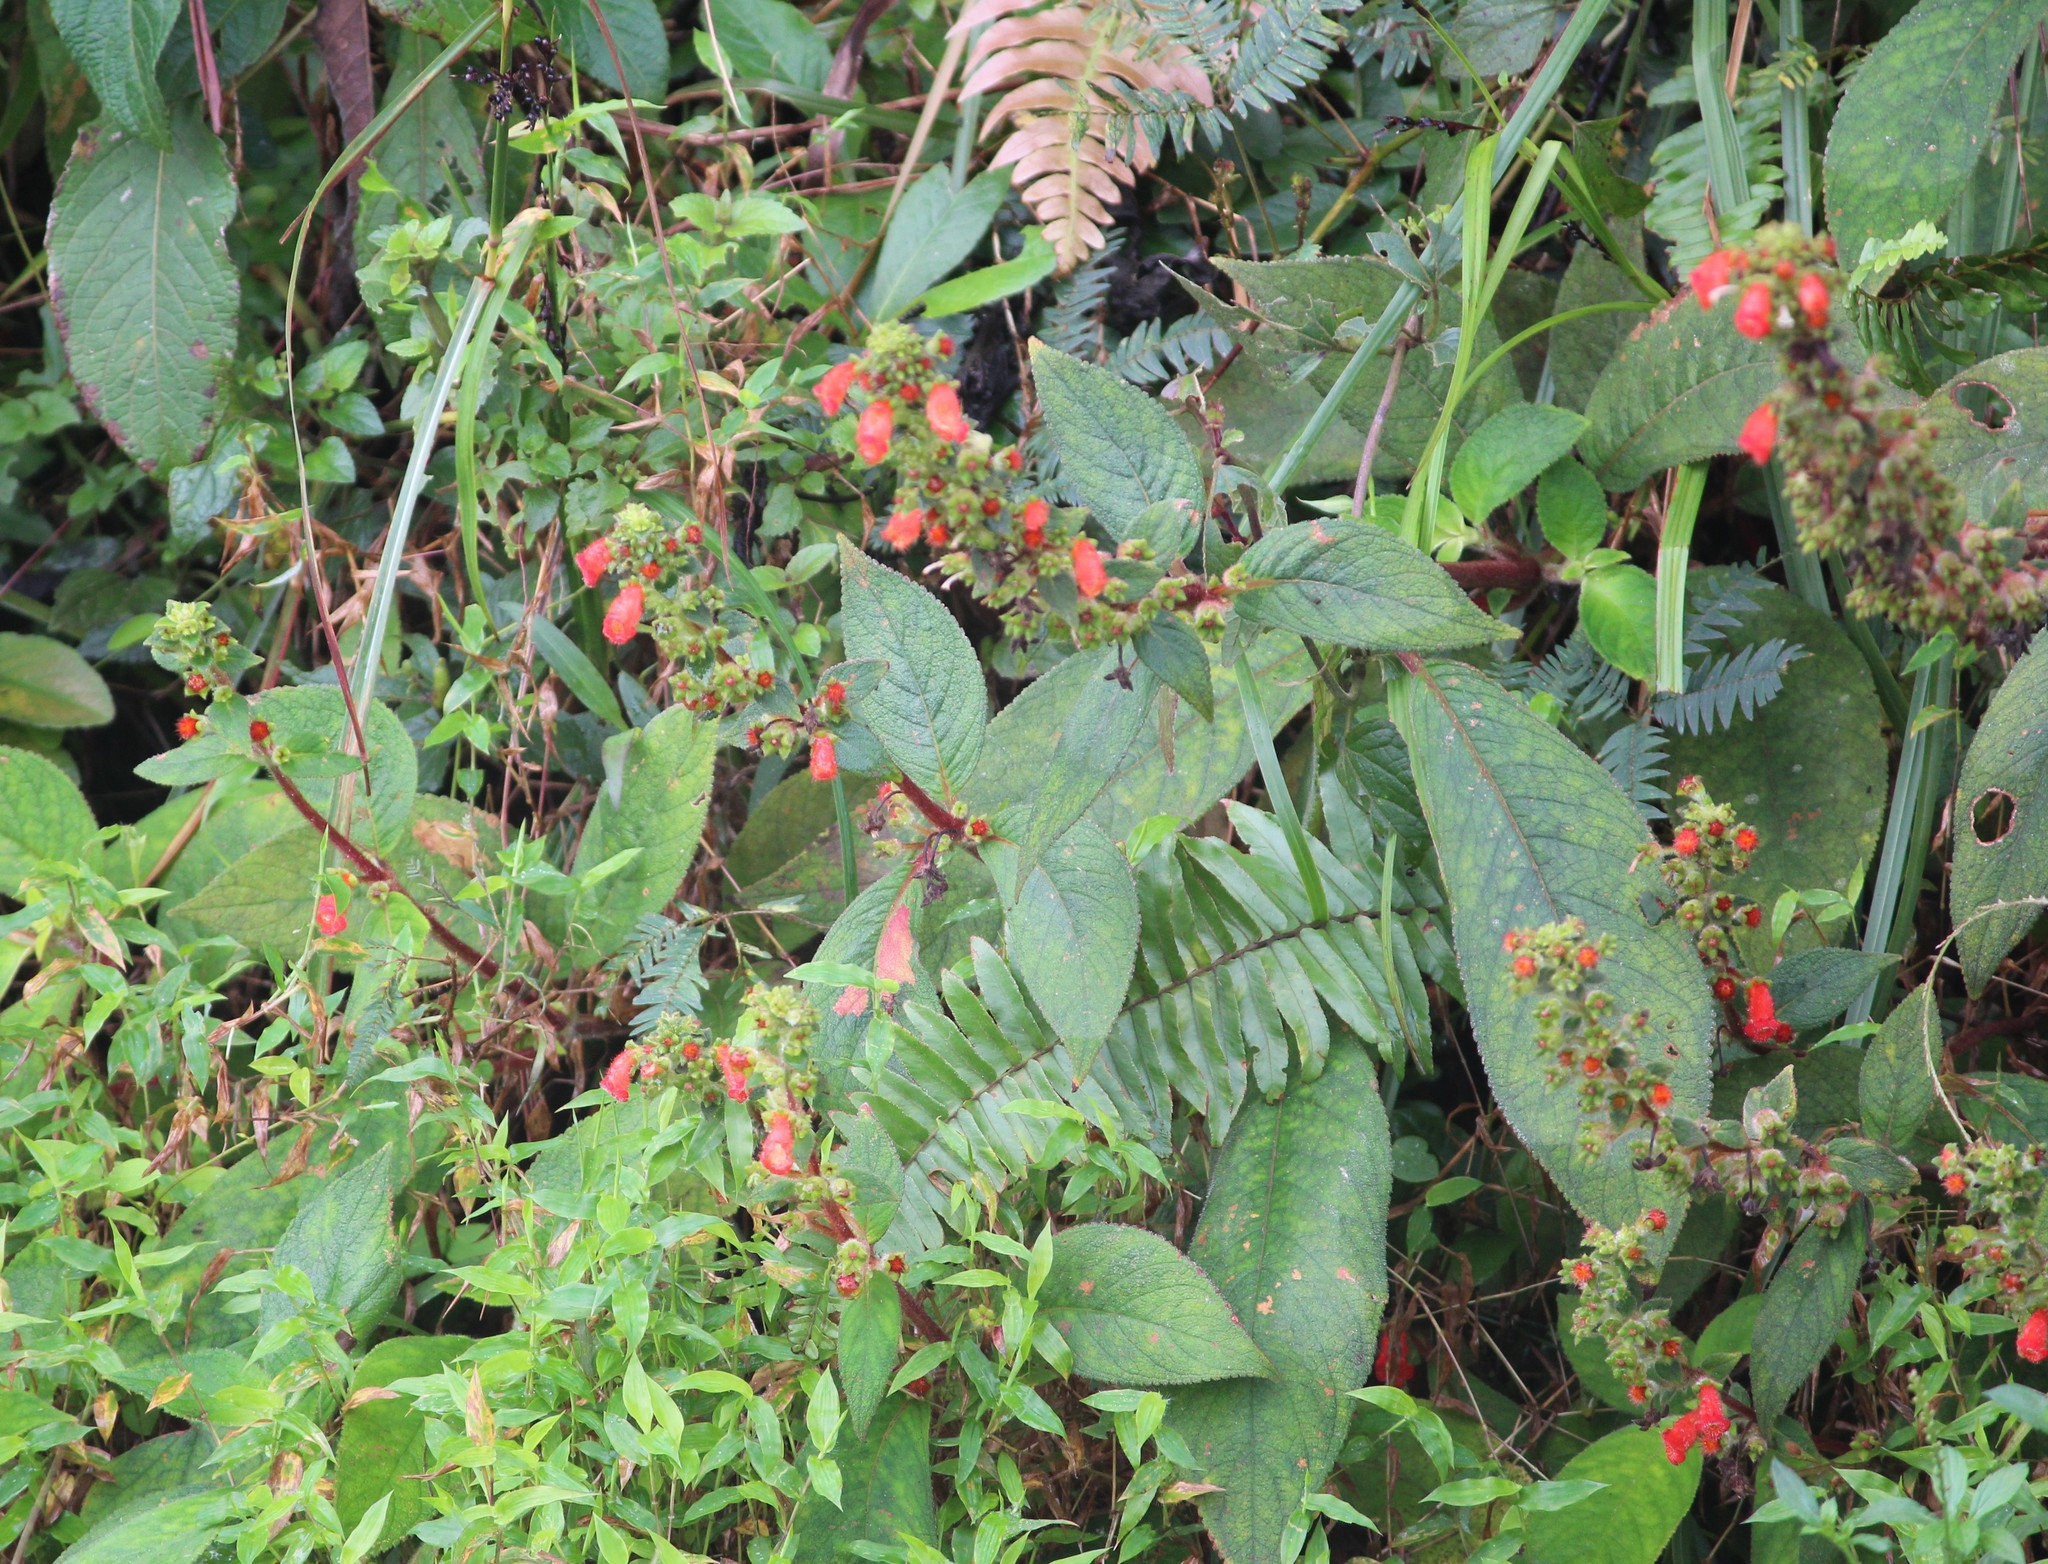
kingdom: Plantae
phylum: Tracheophyta
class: Magnoliopsida
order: Lamiales
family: Gesneriaceae
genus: Kohleria
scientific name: Kohleria spicata
